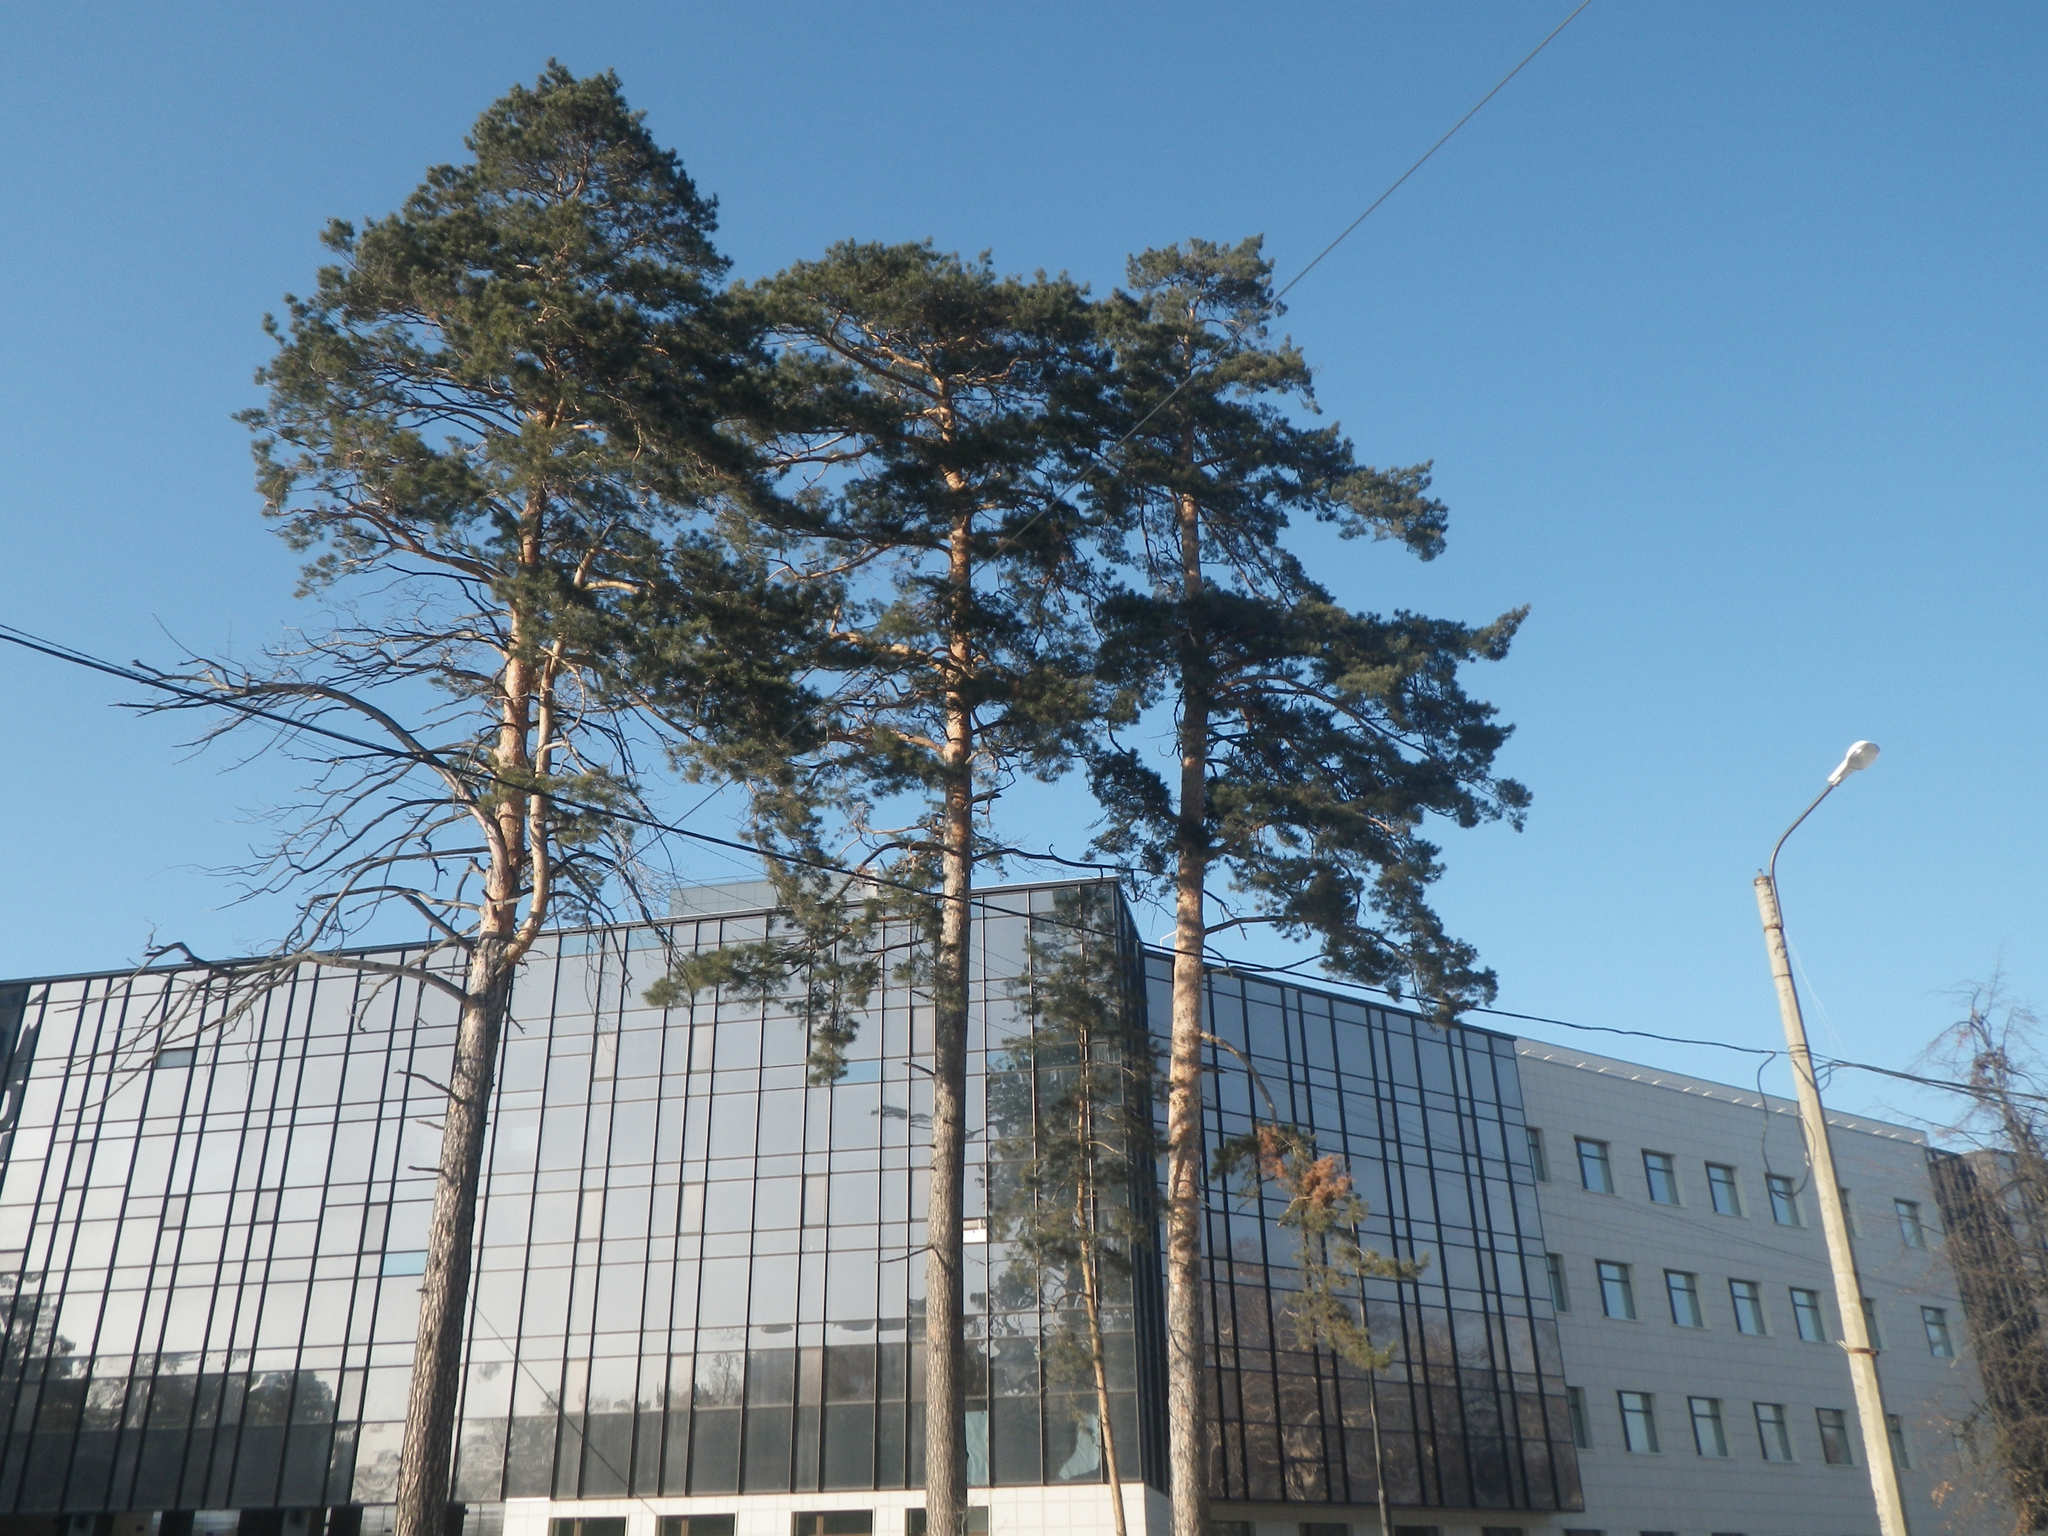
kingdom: Plantae
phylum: Tracheophyta
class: Pinopsida
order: Pinales
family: Pinaceae
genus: Pinus
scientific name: Pinus sylvestris
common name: Scots pine
